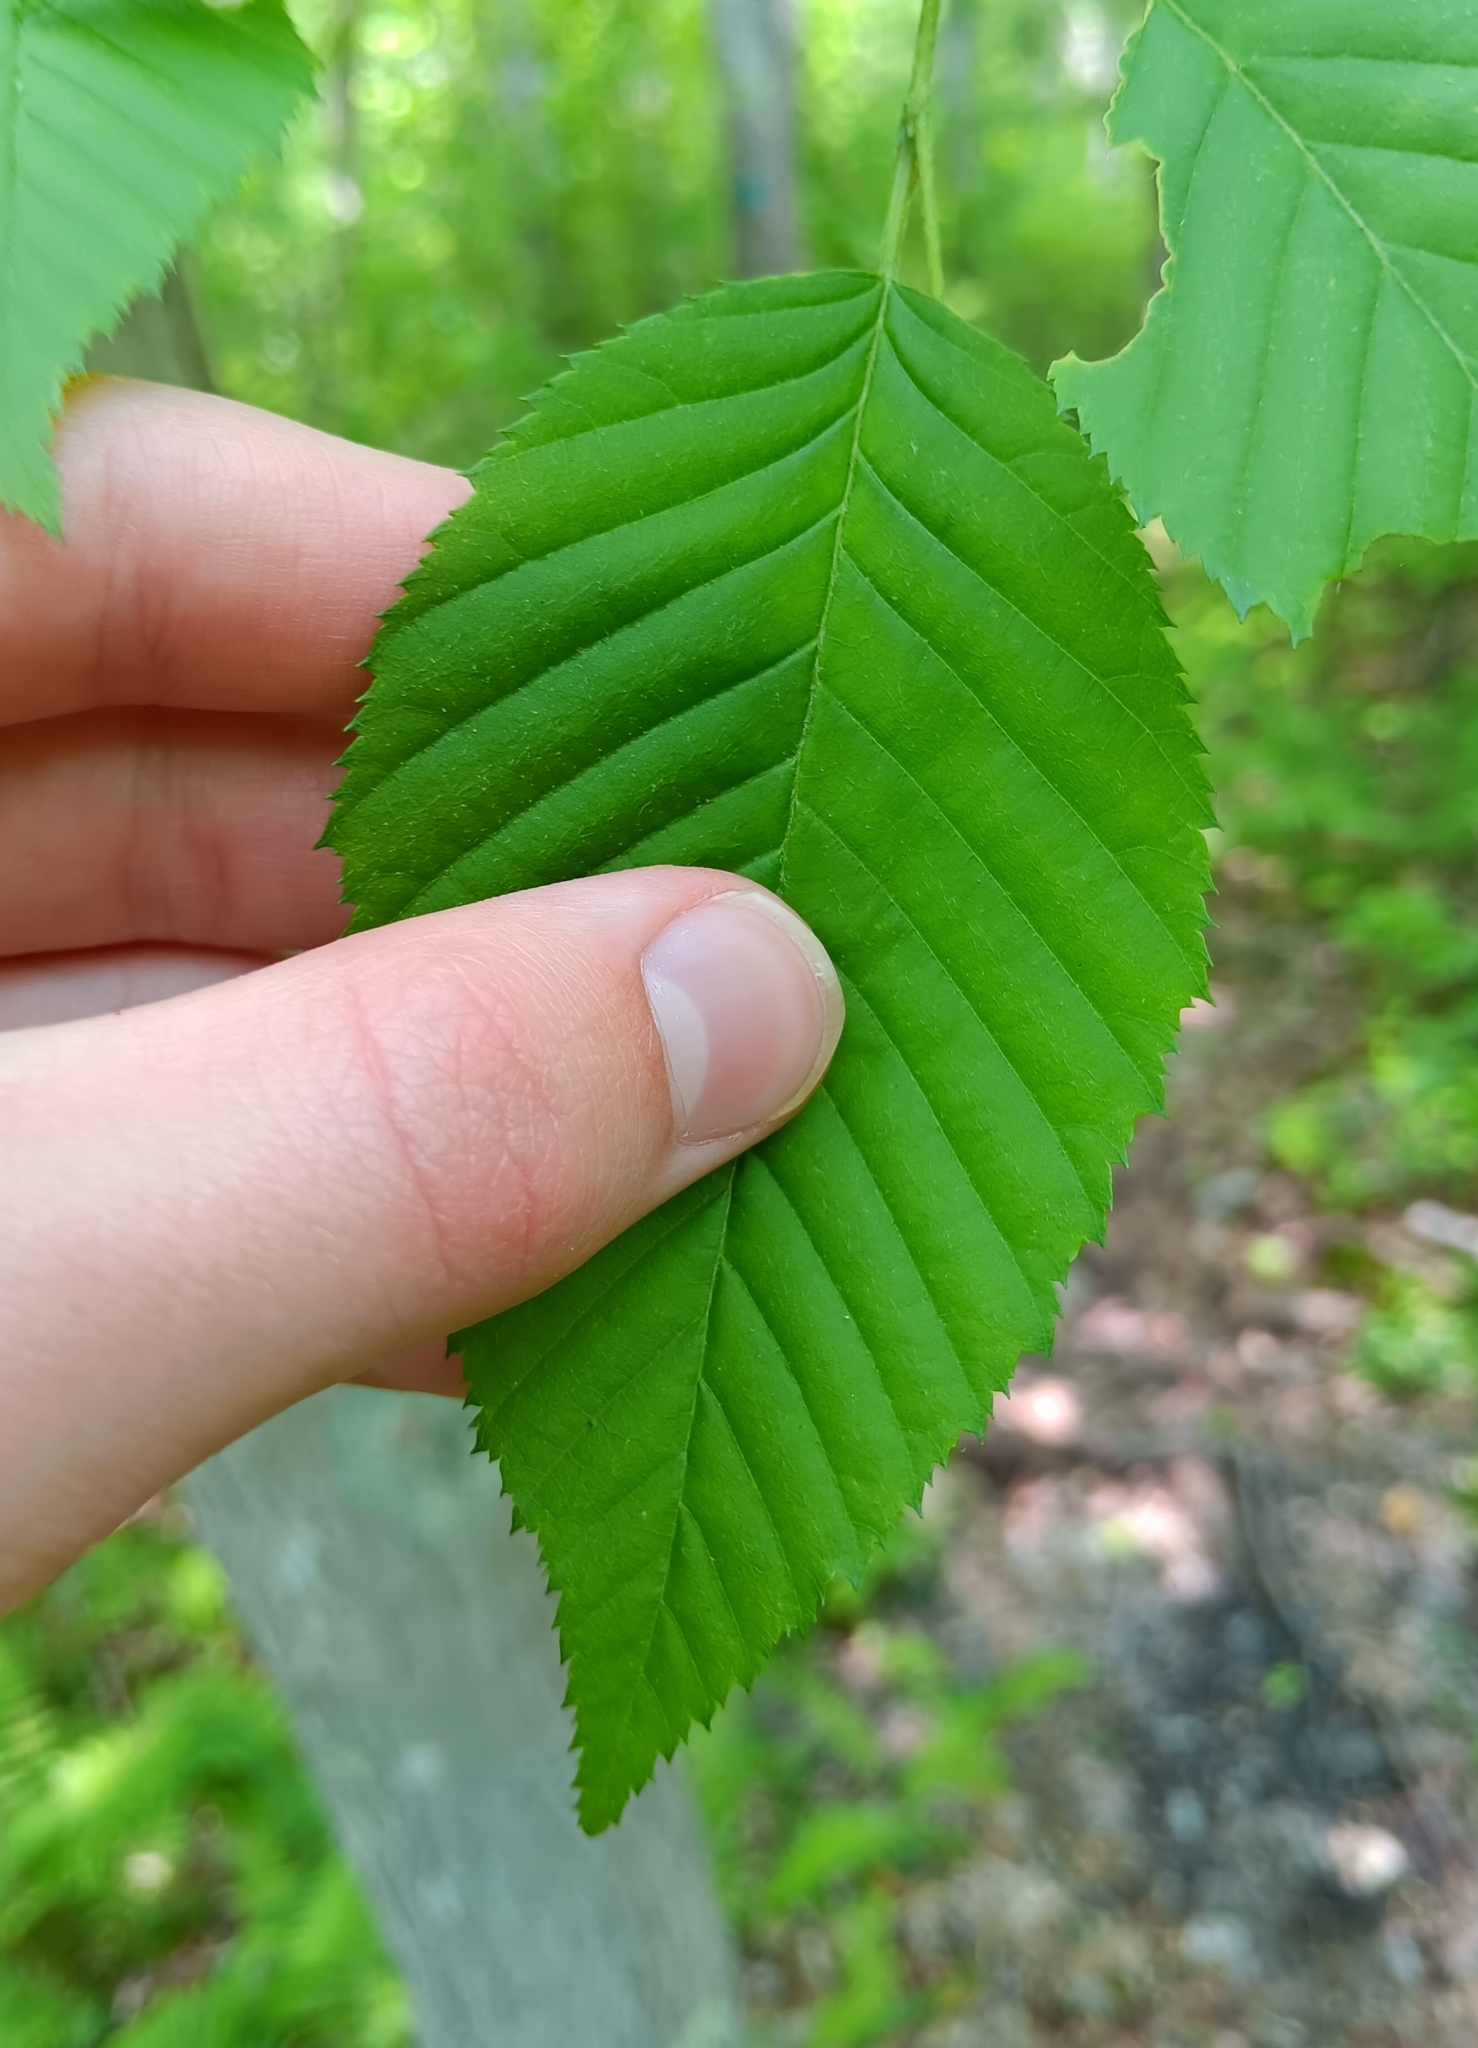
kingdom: Plantae
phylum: Tracheophyta
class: Magnoliopsida
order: Fagales
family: Betulaceae
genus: Carpinus
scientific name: Carpinus caroliniana
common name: American hornbeam
